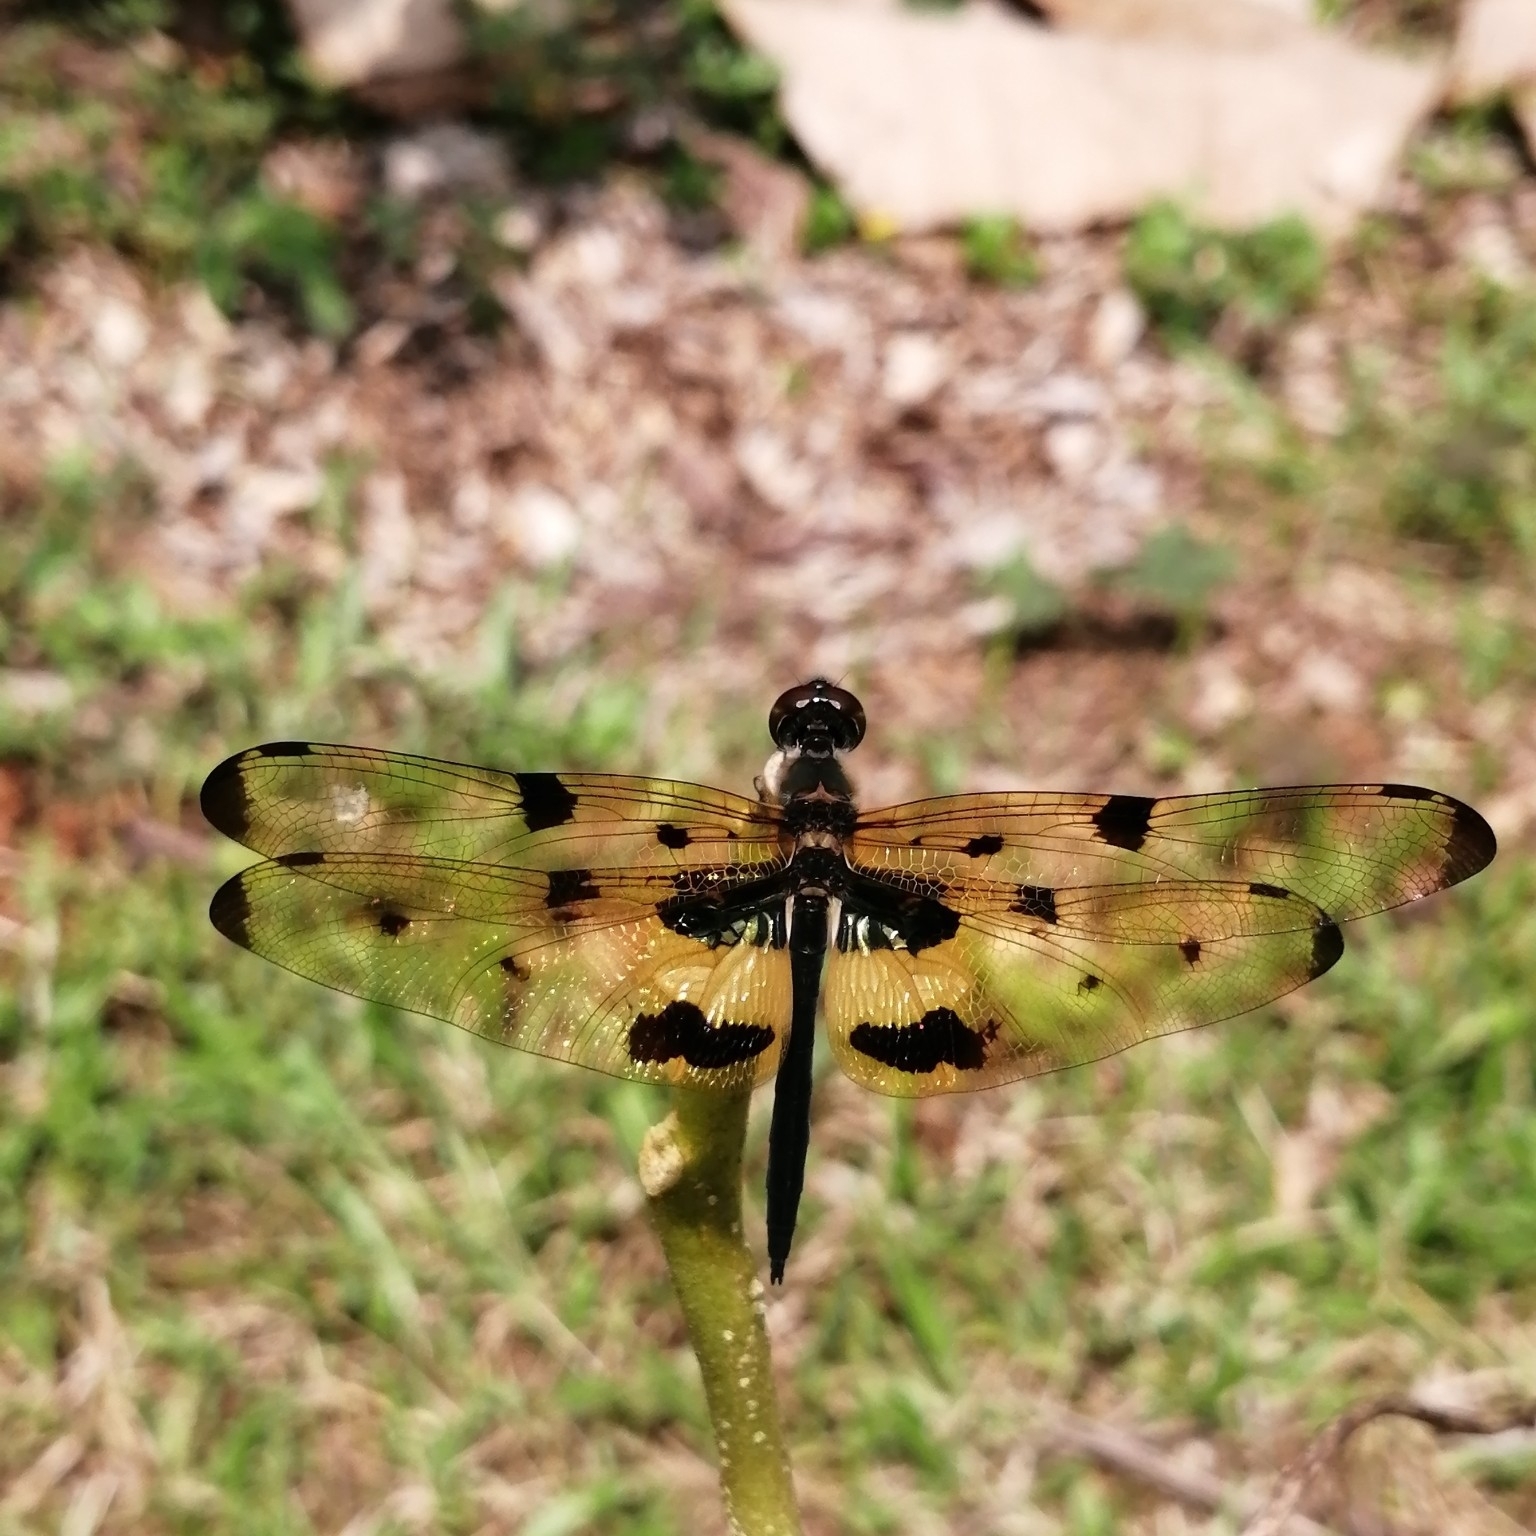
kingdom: Animalia
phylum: Arthropoda
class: Insecta
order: Odonata
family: Libellulidae
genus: Rhyothemis
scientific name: Rhyothemis variegata
